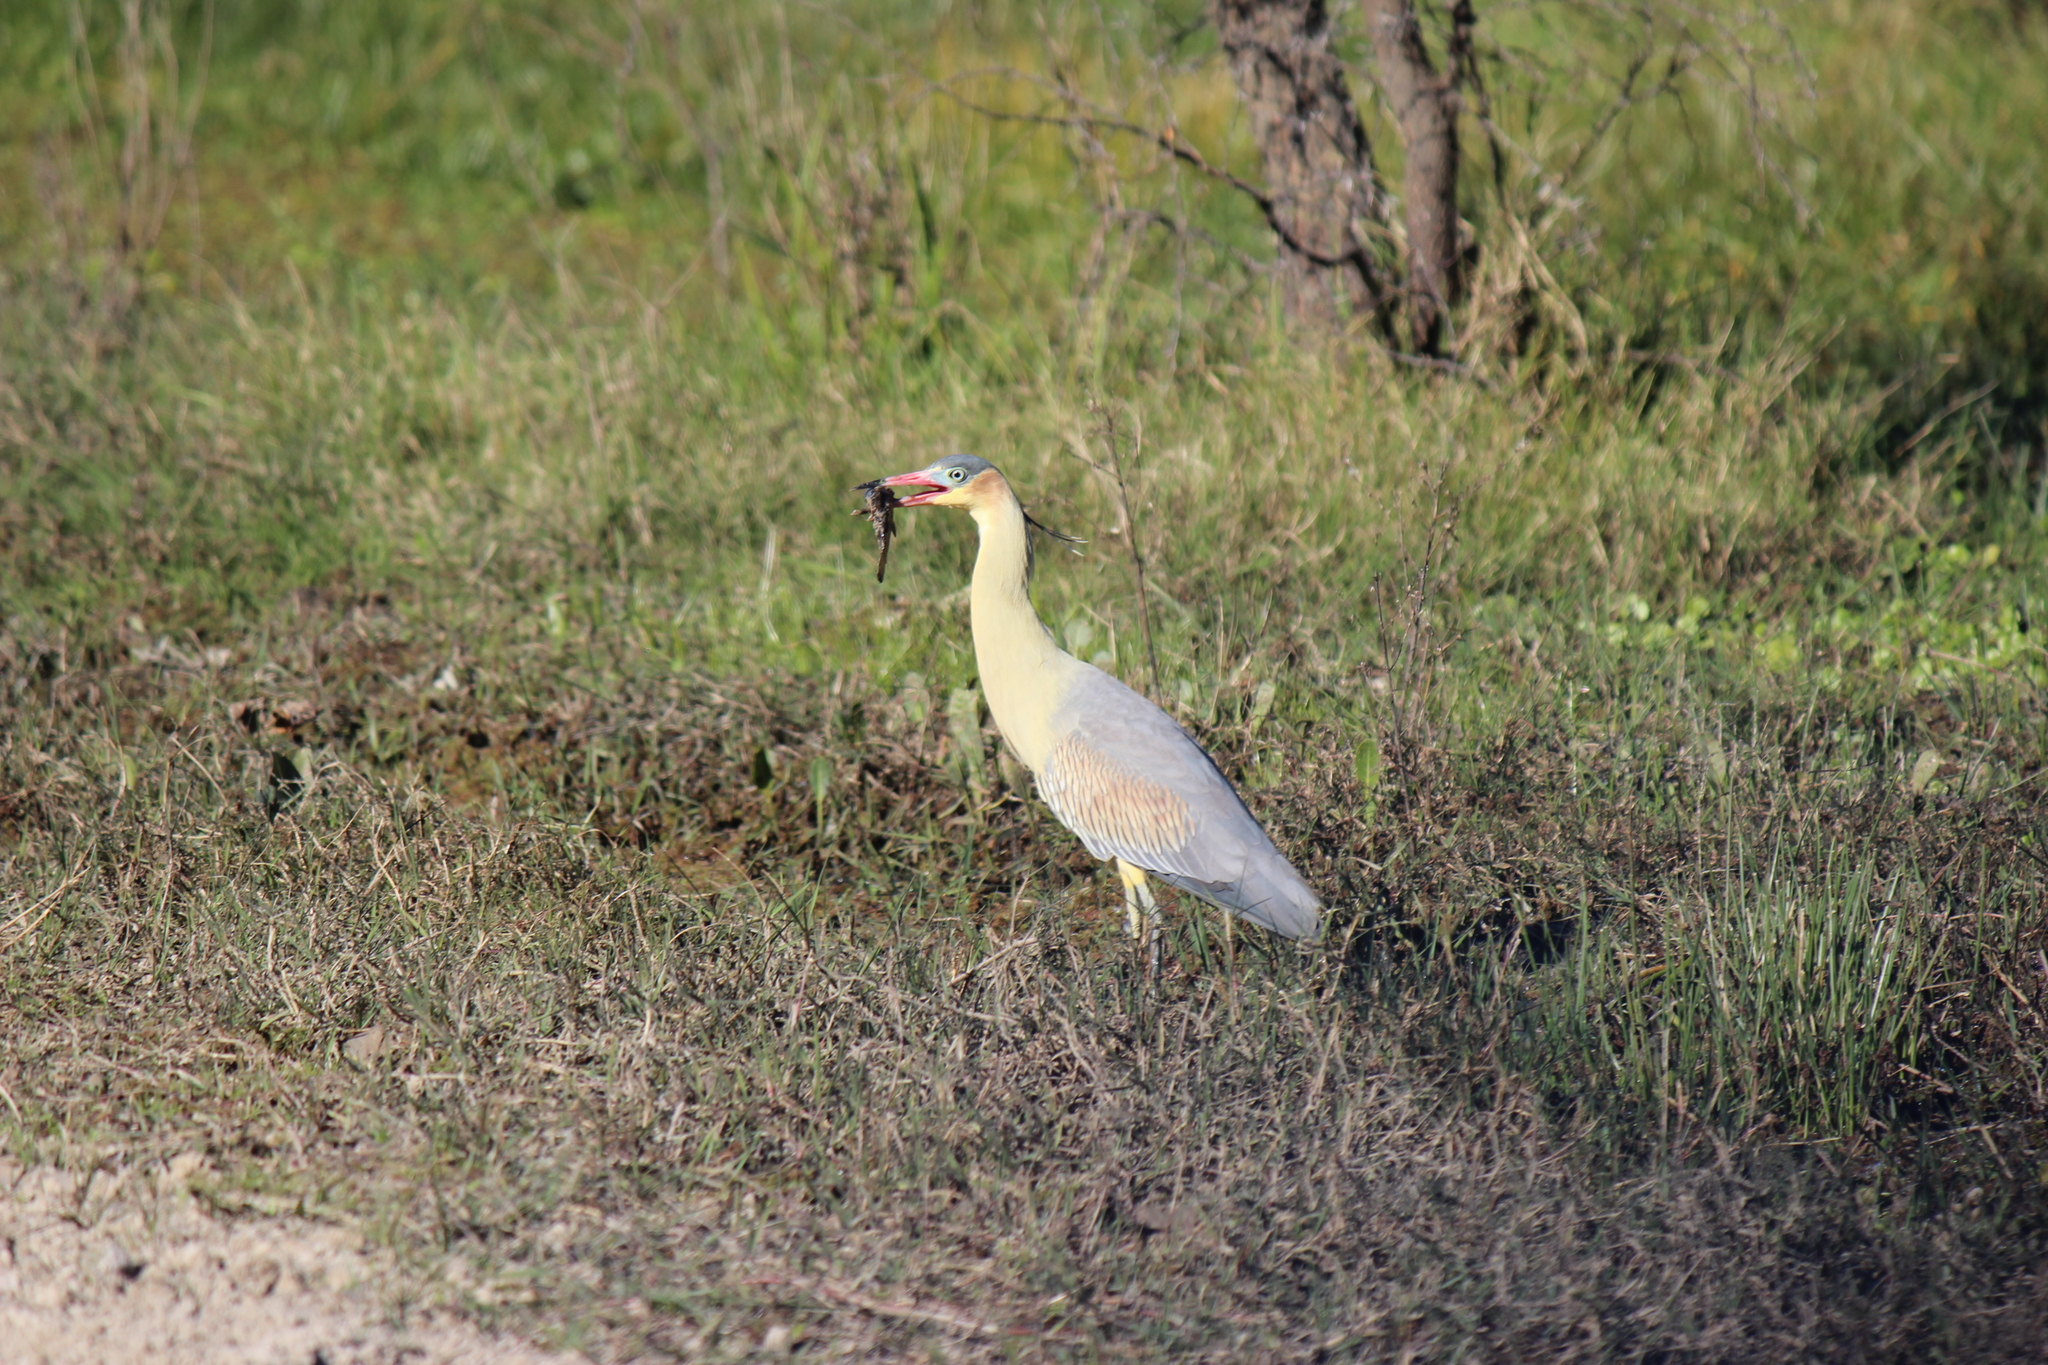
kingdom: Animalia
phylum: Chordata
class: Aves
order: Pelecaniformes
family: Ardeidae
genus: Syrigma
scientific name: Syrigma sibilatrix
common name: Whistling heron
